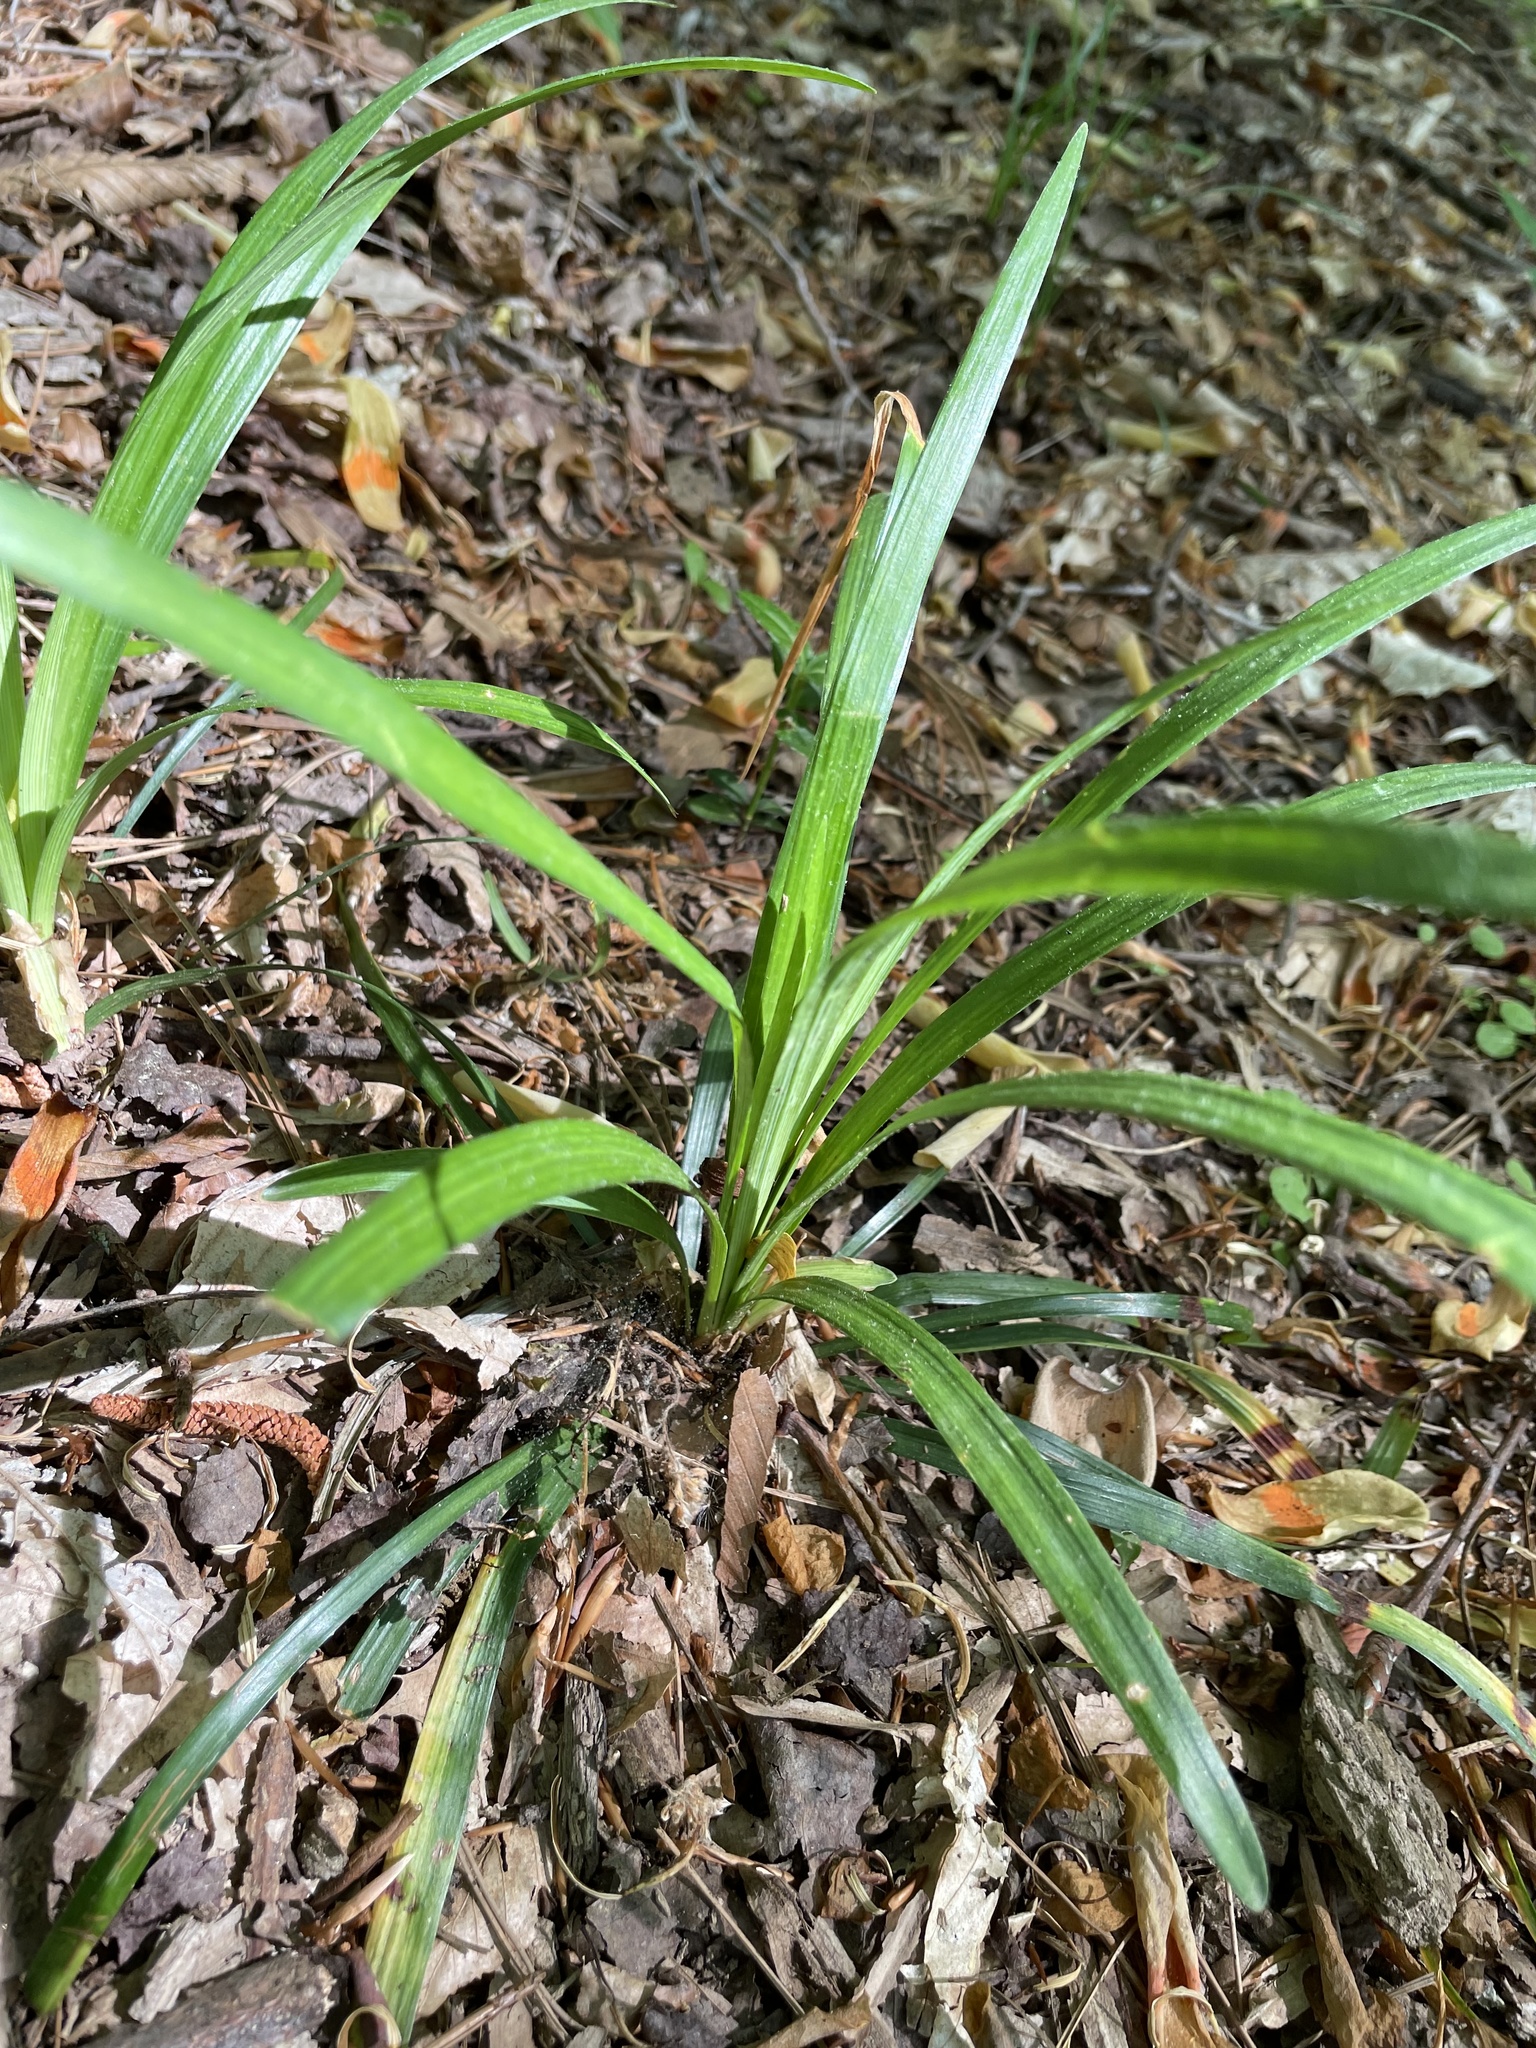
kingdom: Plantae
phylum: Tracheophyta
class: Liliopsida
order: Asparagales
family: Asparagaceae
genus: Liriope
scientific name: Liriope muscari
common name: Big blue lilyturf
